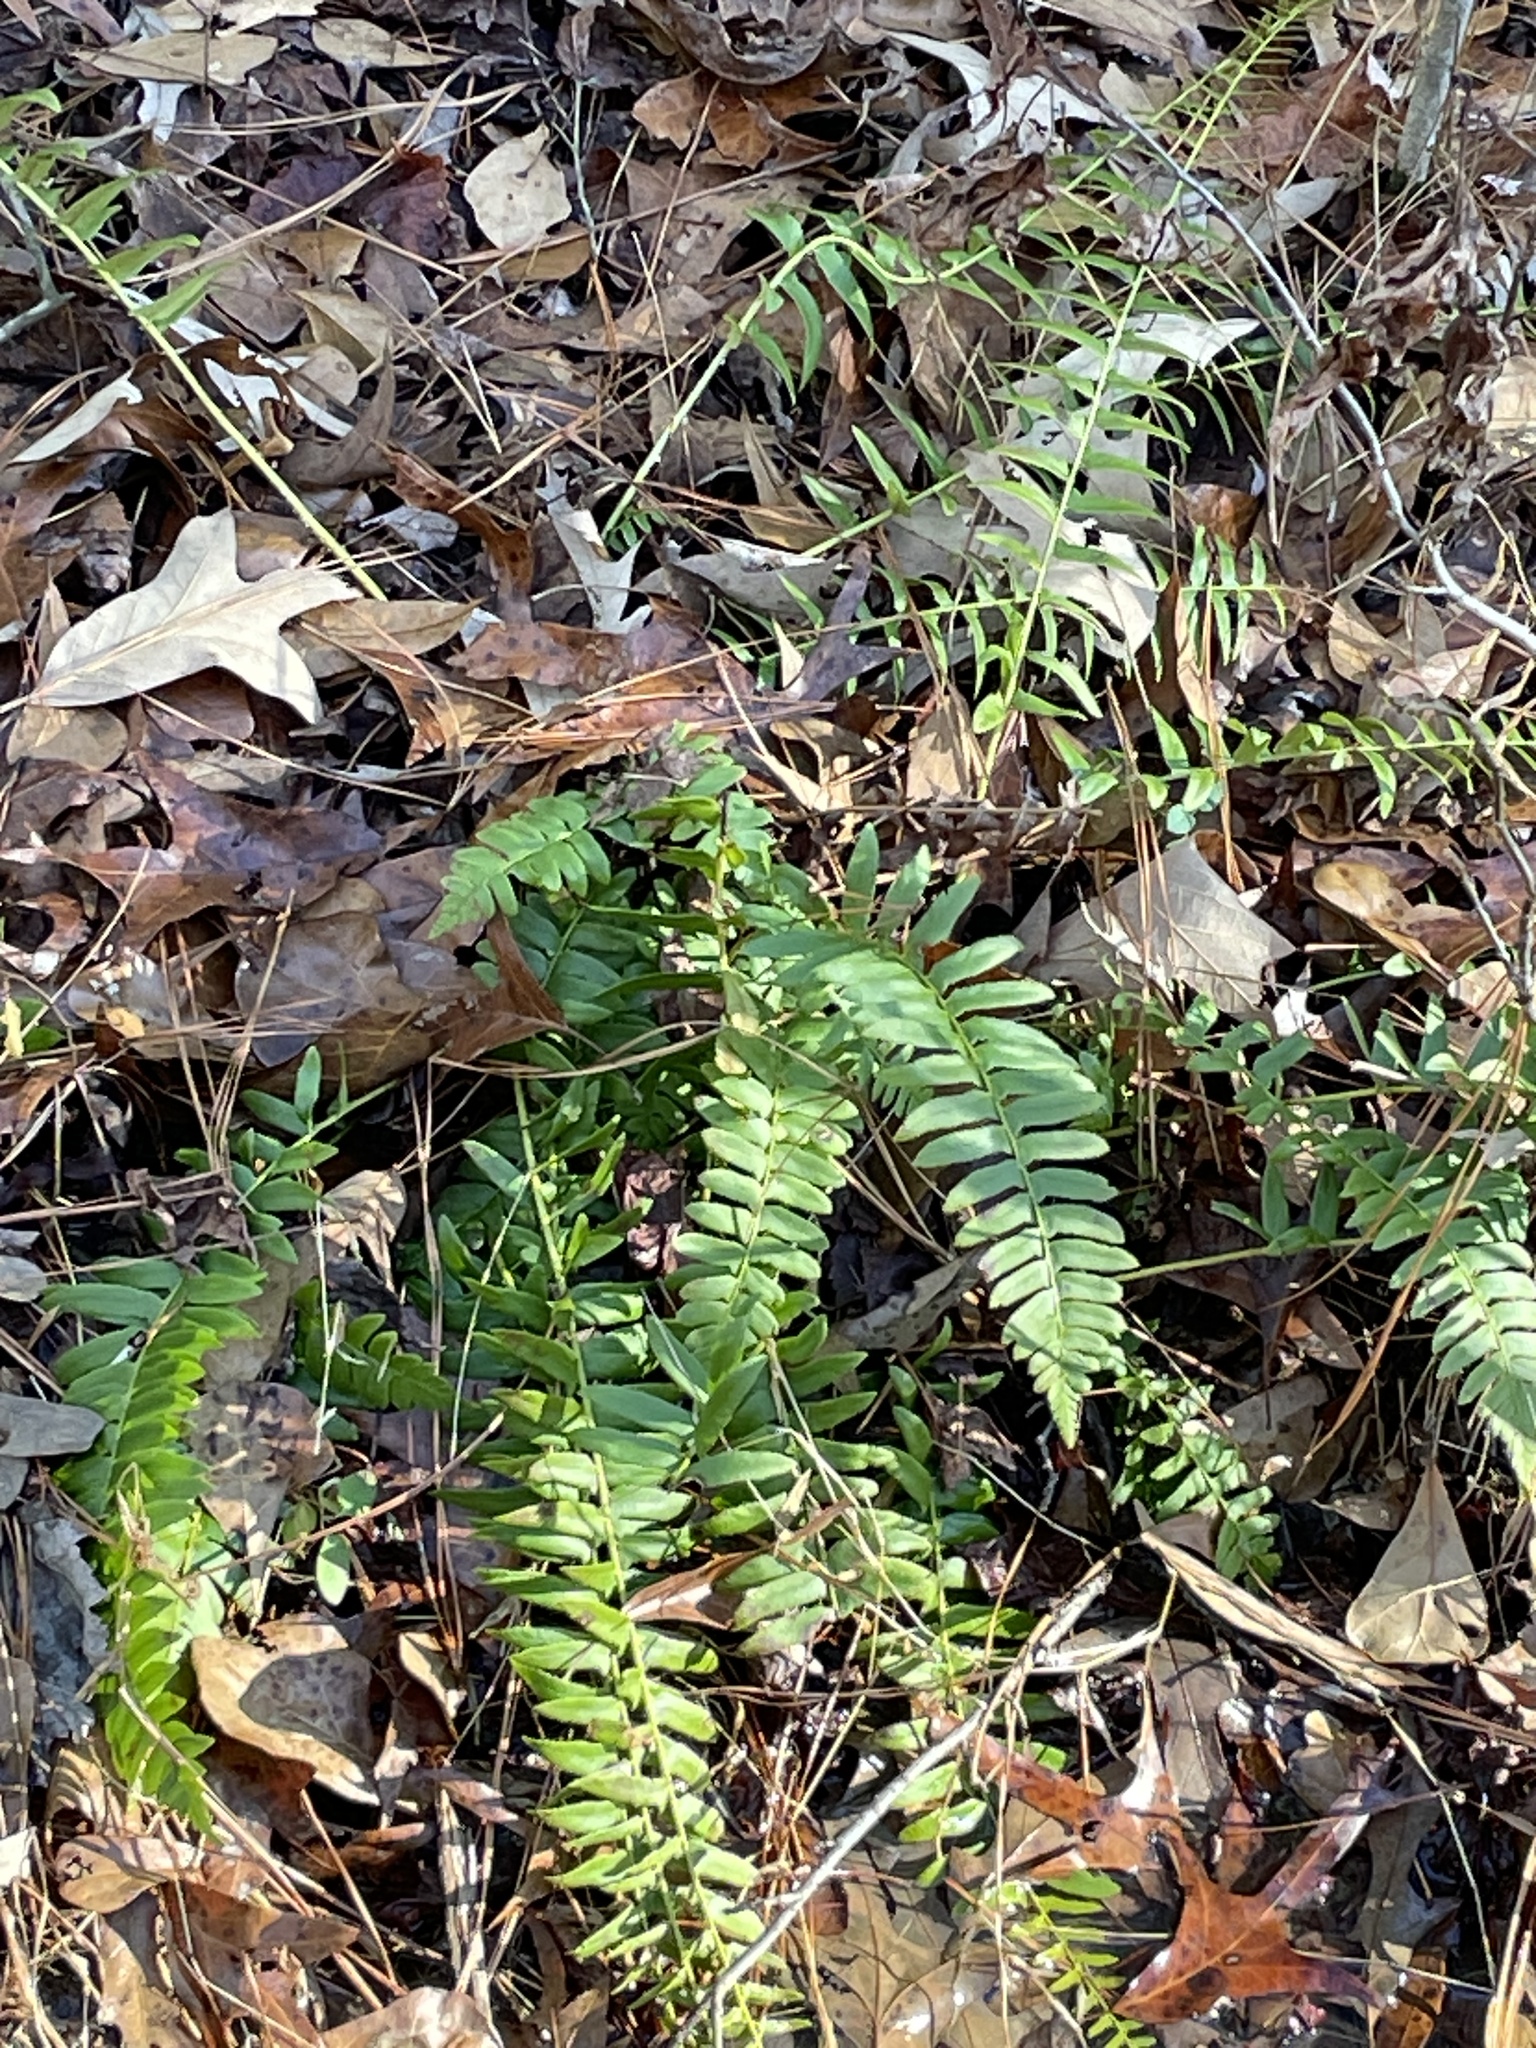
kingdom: Plantae
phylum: Tracheophyta
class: Polypodiopsida
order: Polypodiales
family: Dryopteridaceae
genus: Polystichum
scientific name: Polystichum acrostichoides
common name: Christmas fern
